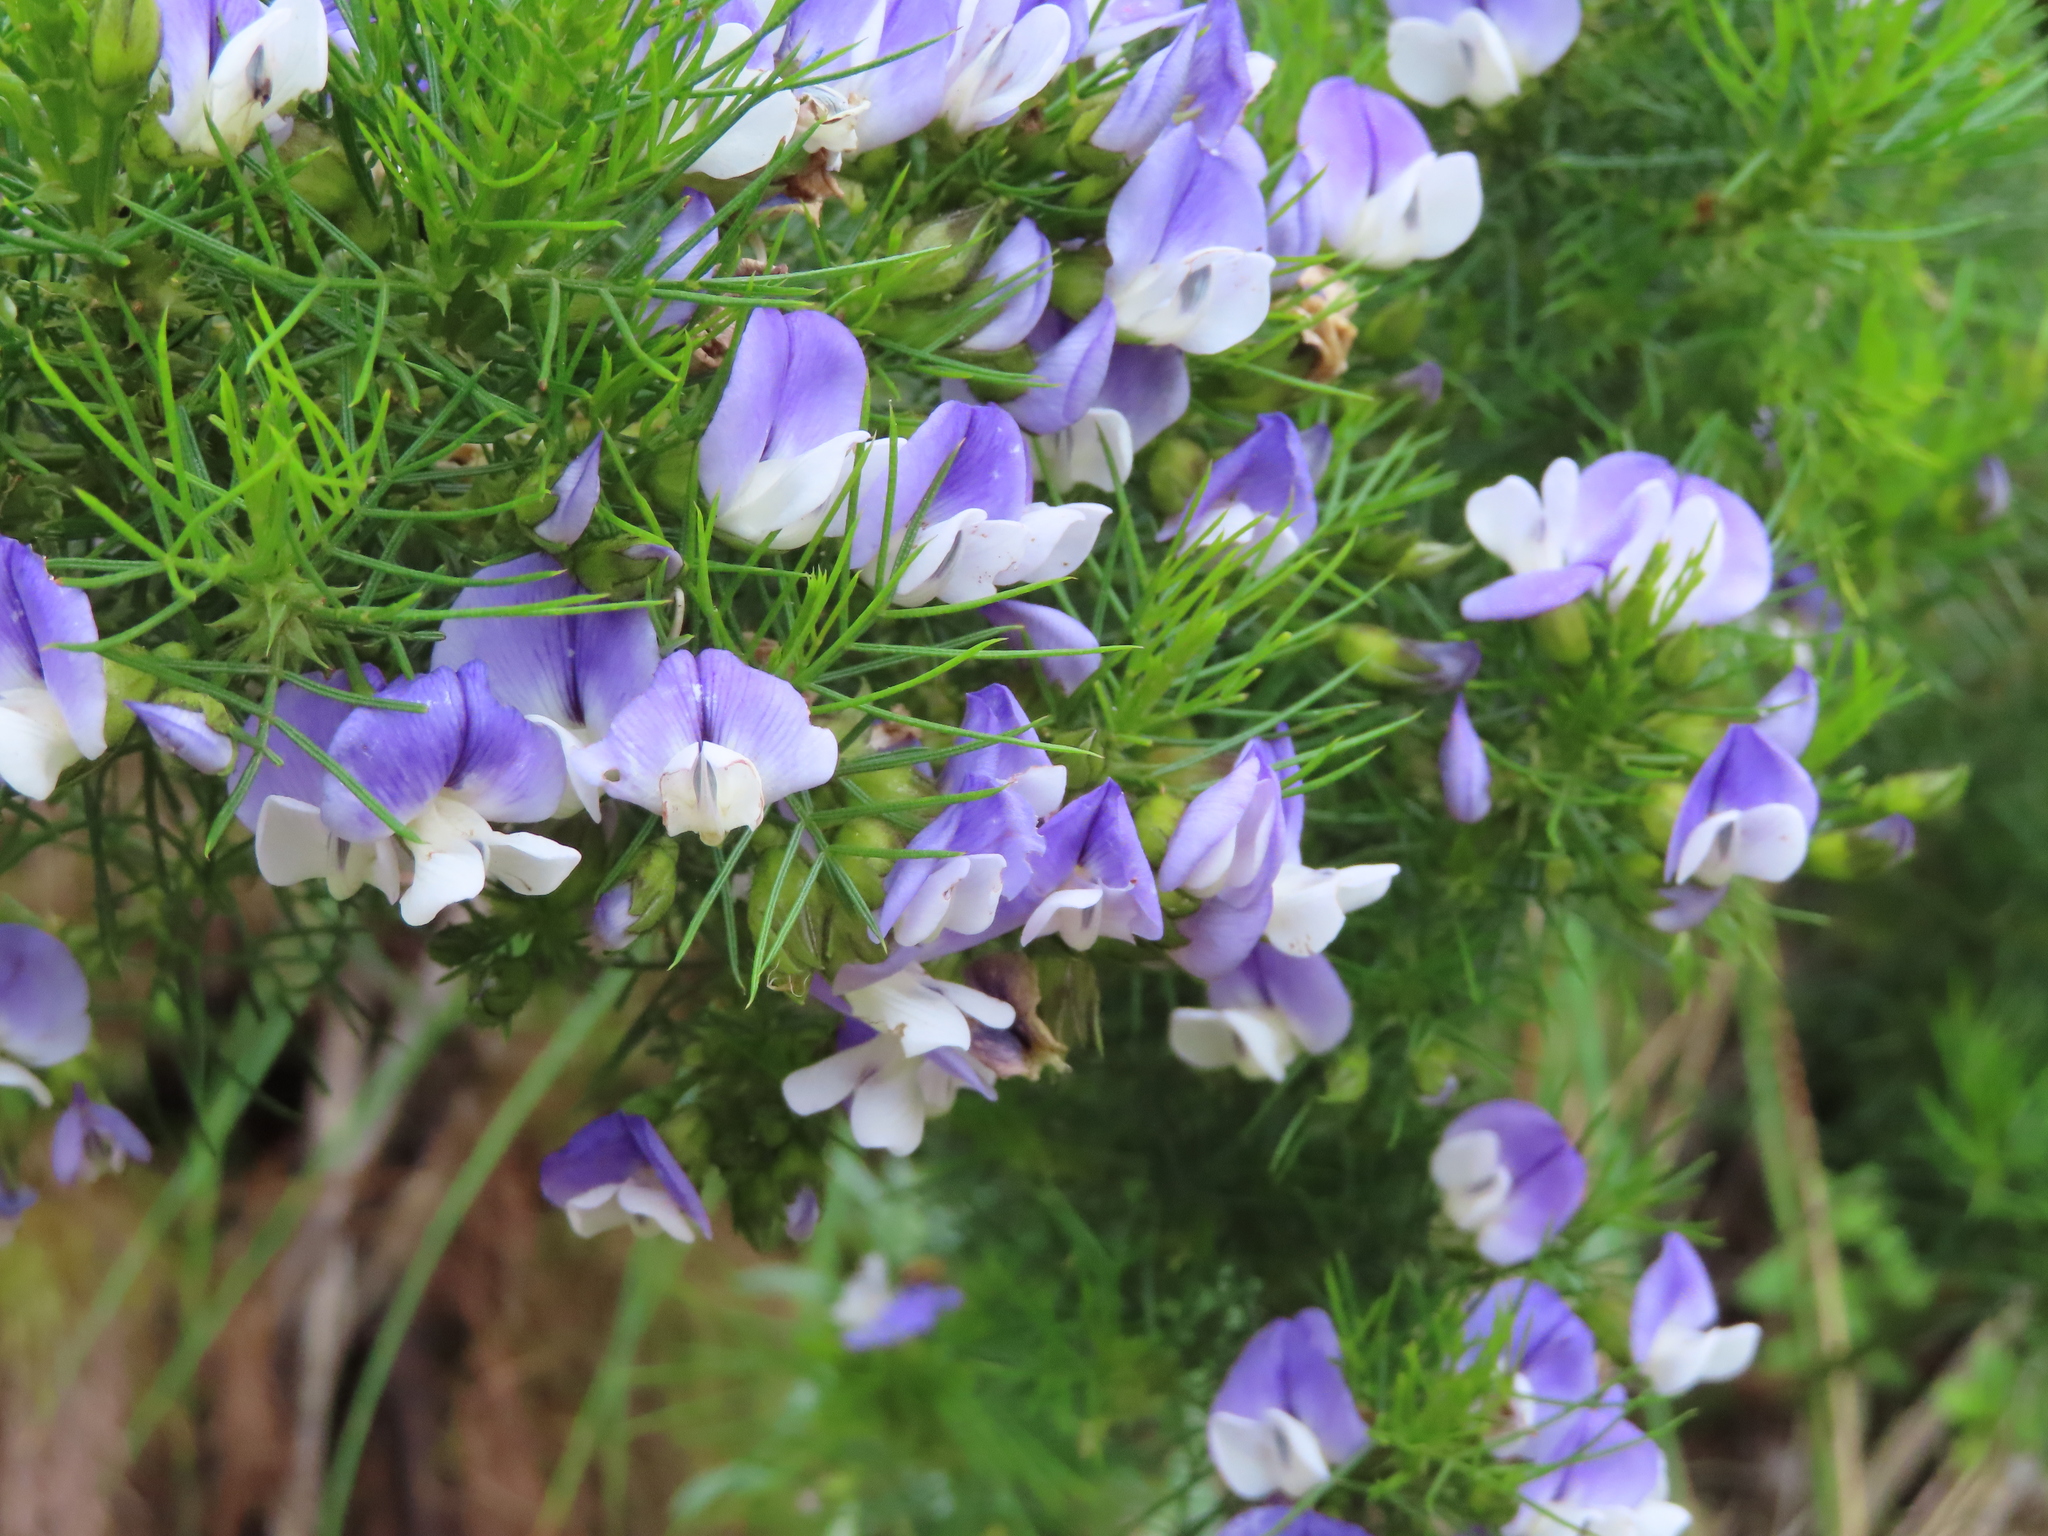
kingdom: Plantae
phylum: Tracheophyta
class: Magnoliopsida
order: Fabales
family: Fabaceae
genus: Psoralea
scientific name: Psoralea pinnata
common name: African scurfpea
